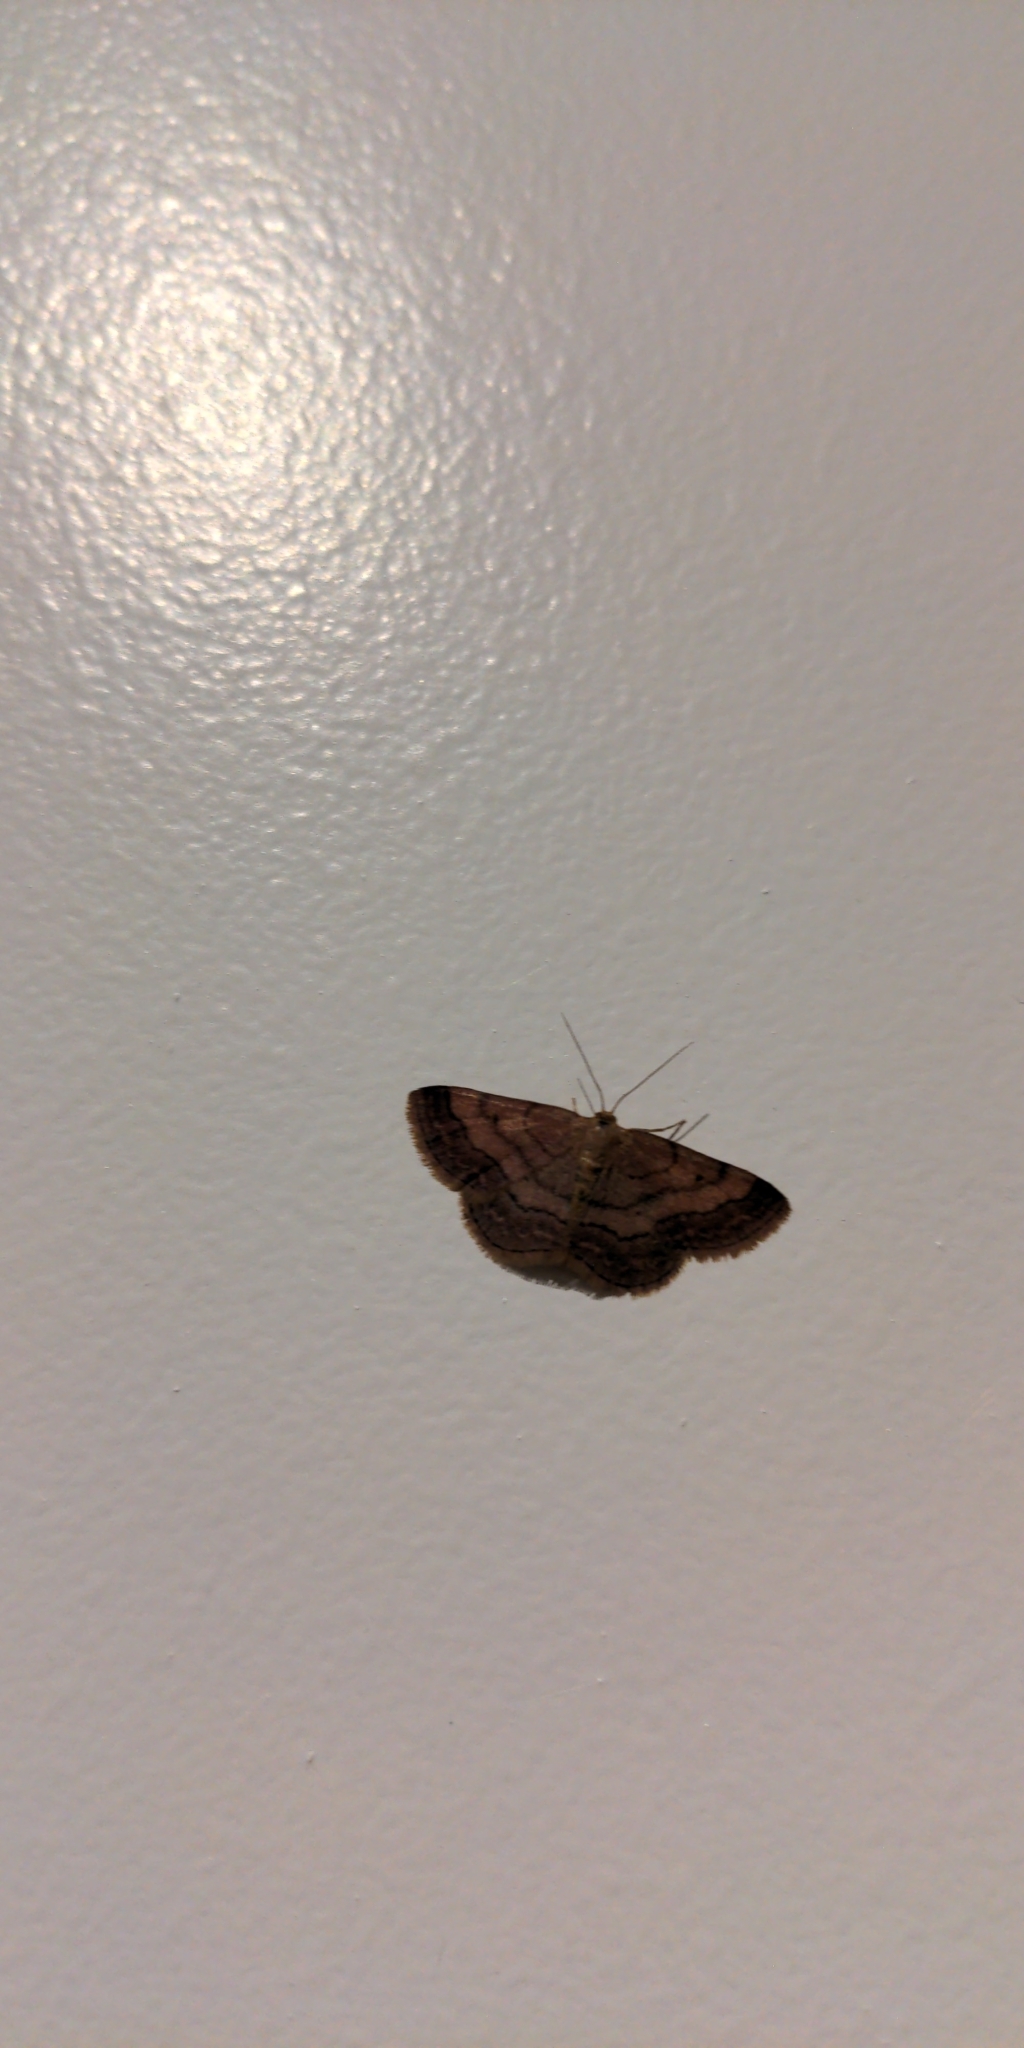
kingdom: Animalia
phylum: Arthropoda
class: Insecta
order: Lepidoptera
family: Geometridae
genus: Scopula
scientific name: Scopula rubiginata
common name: Tawny wave
